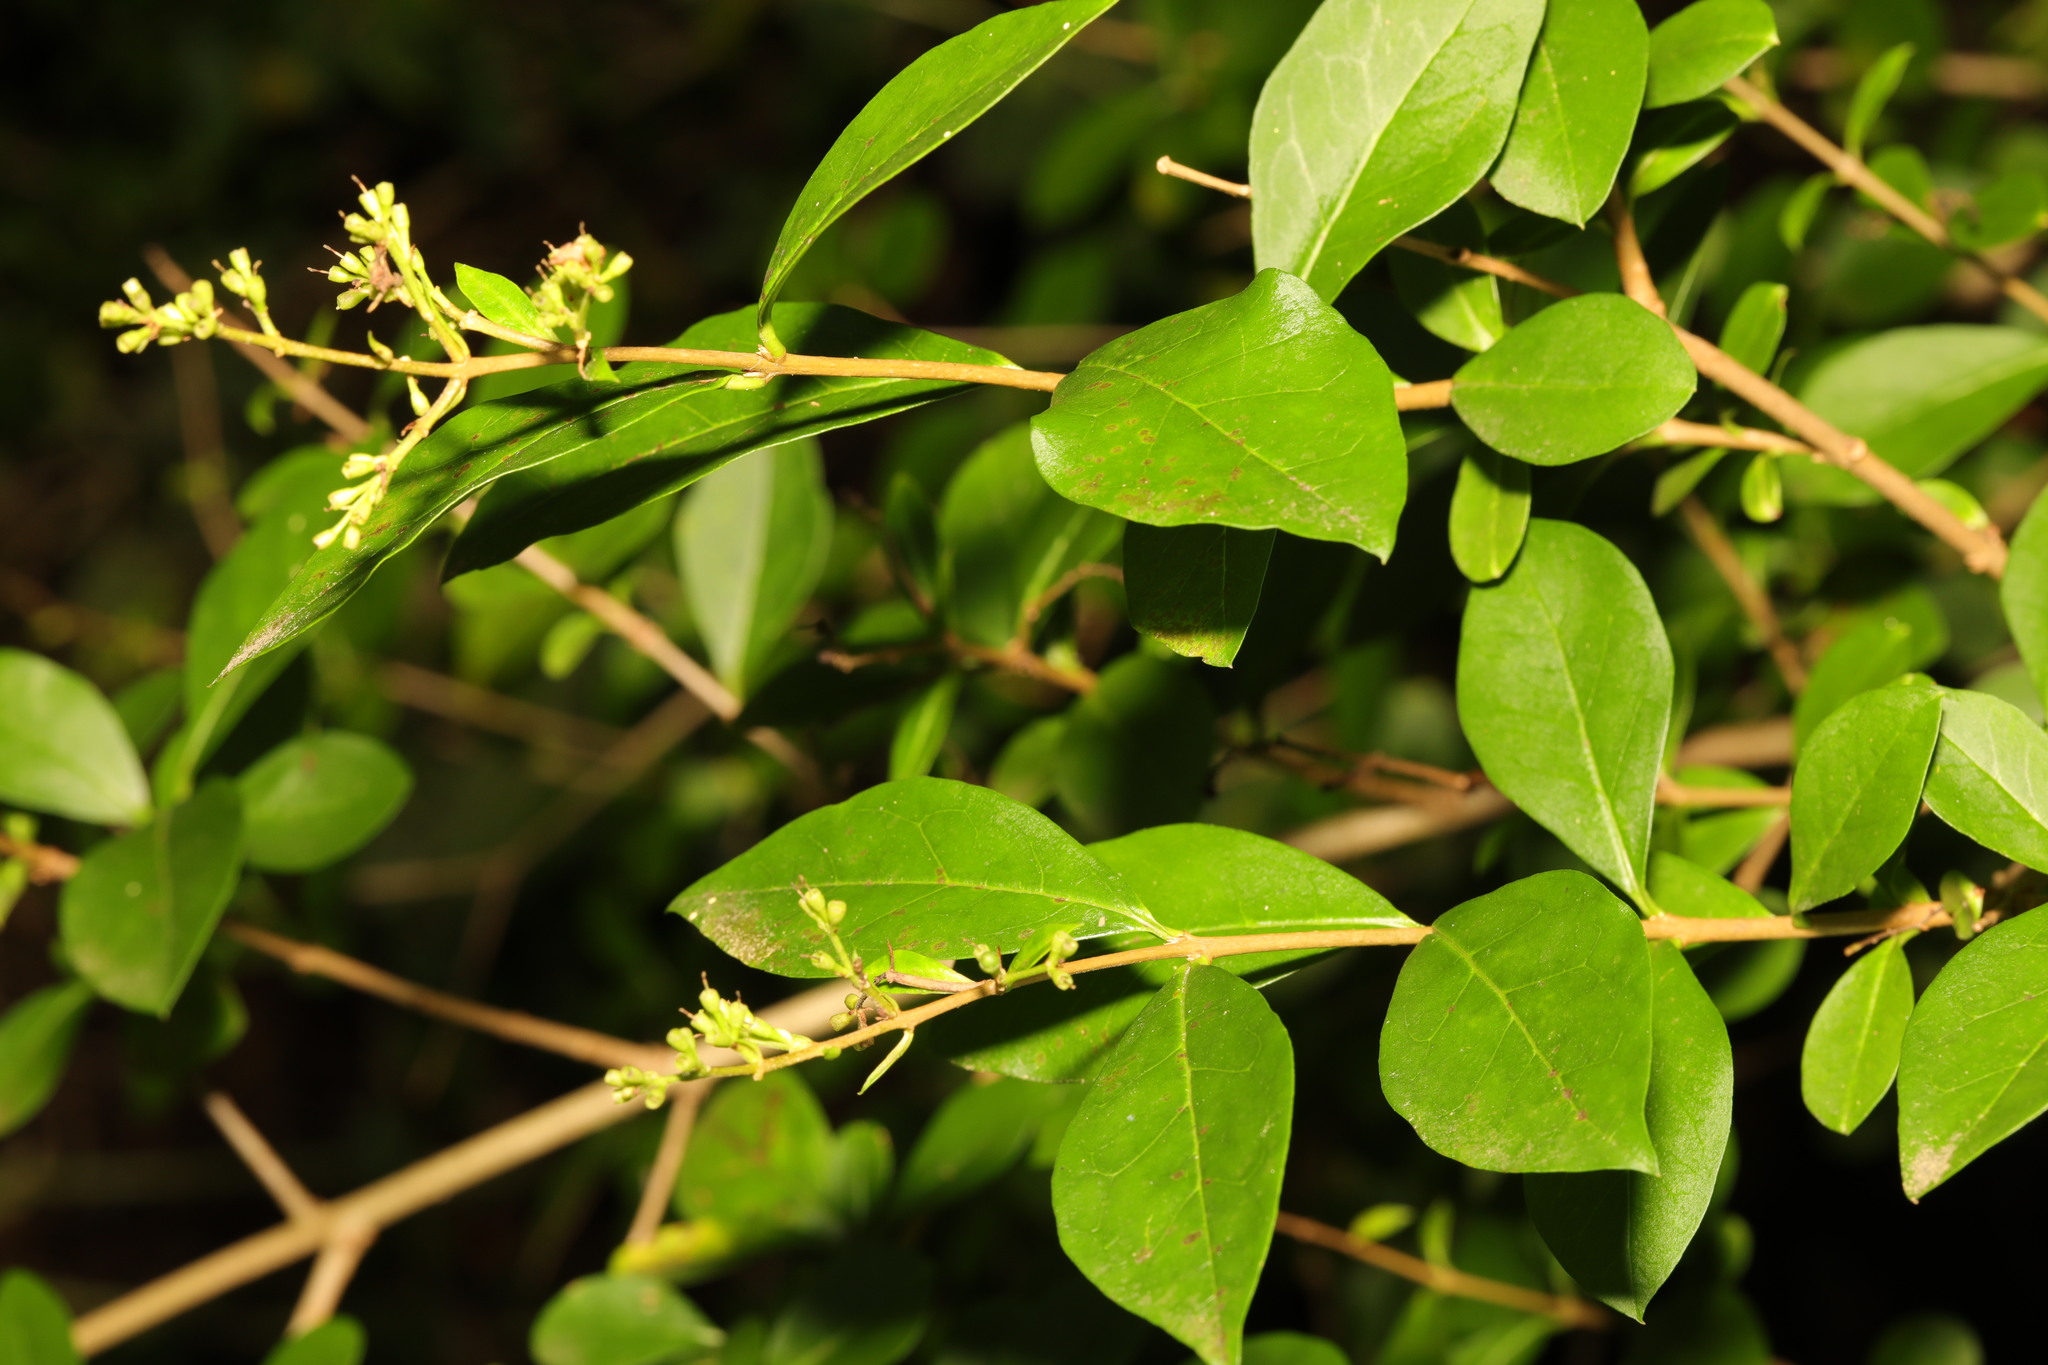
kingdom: Plantae
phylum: Tracheophyta
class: Magnoliopsida
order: Lamiales
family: Oleaceae
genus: Ligustrum
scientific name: Ligustrum ovalifolium
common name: California privet
